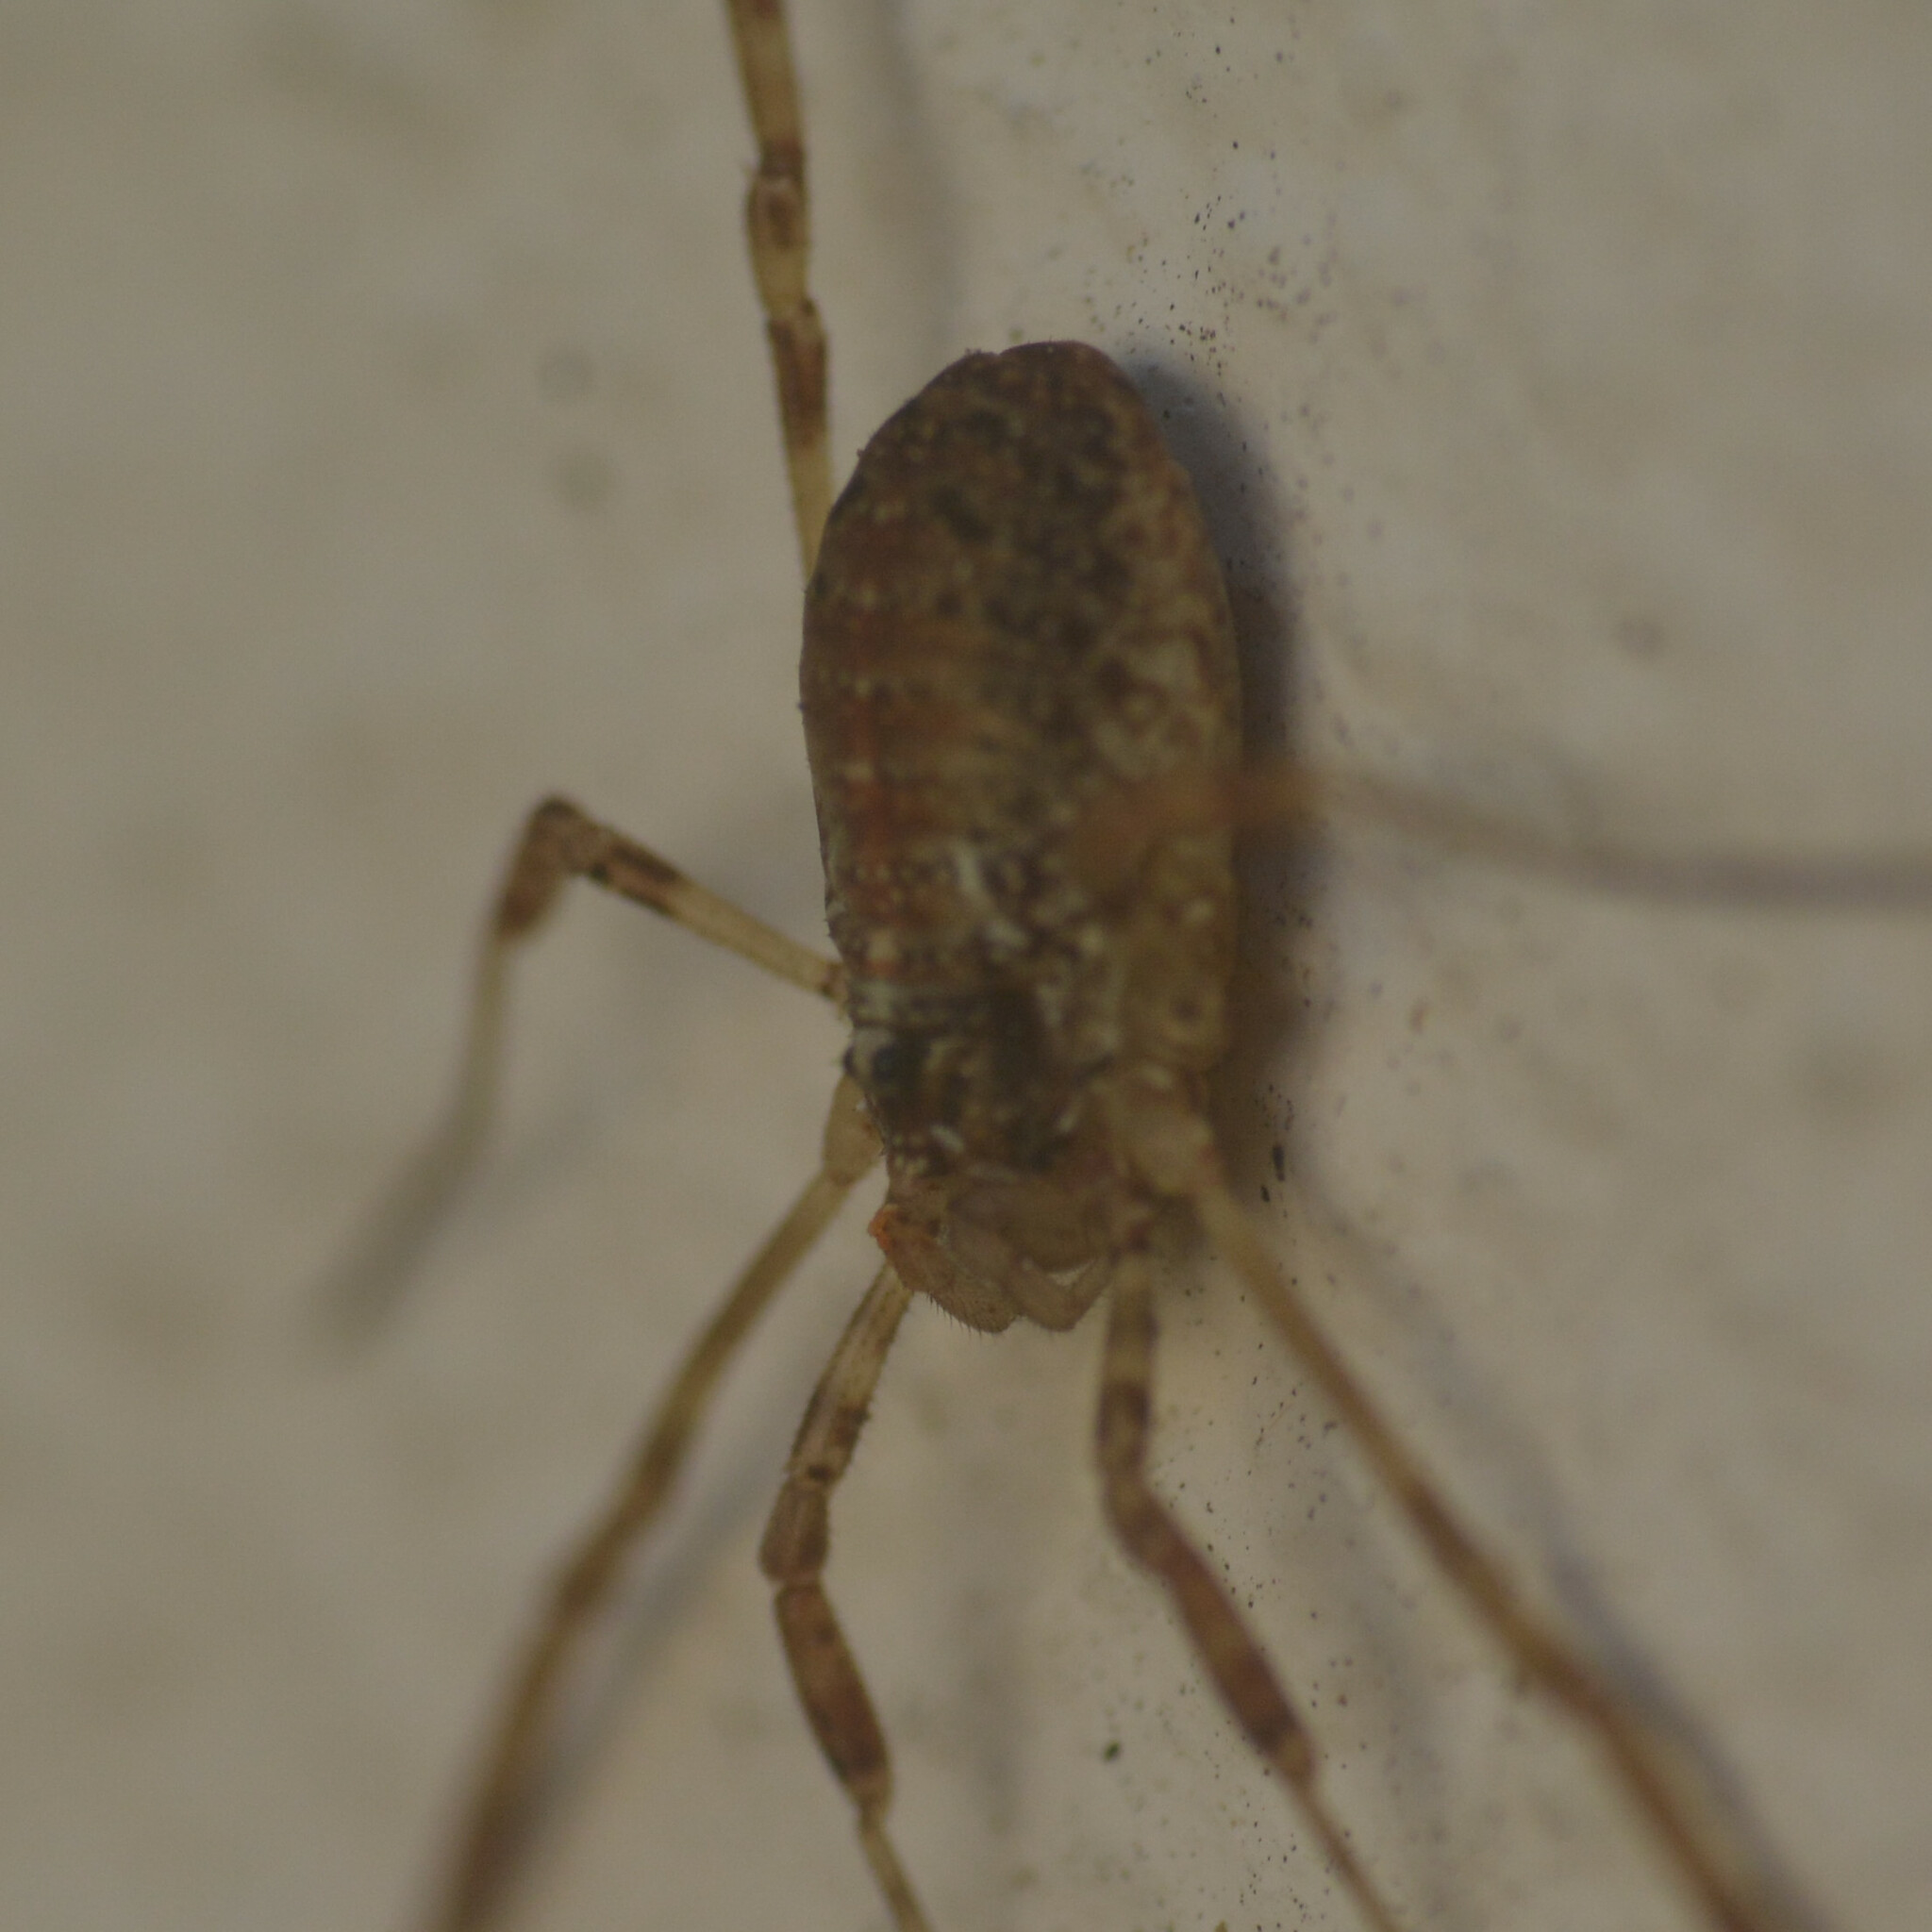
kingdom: Animalia
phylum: Arthropoda
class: Arachnida
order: Opiliones
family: Phalangiidae
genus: Paroligolophus
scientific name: Paroligolophus agrestis
